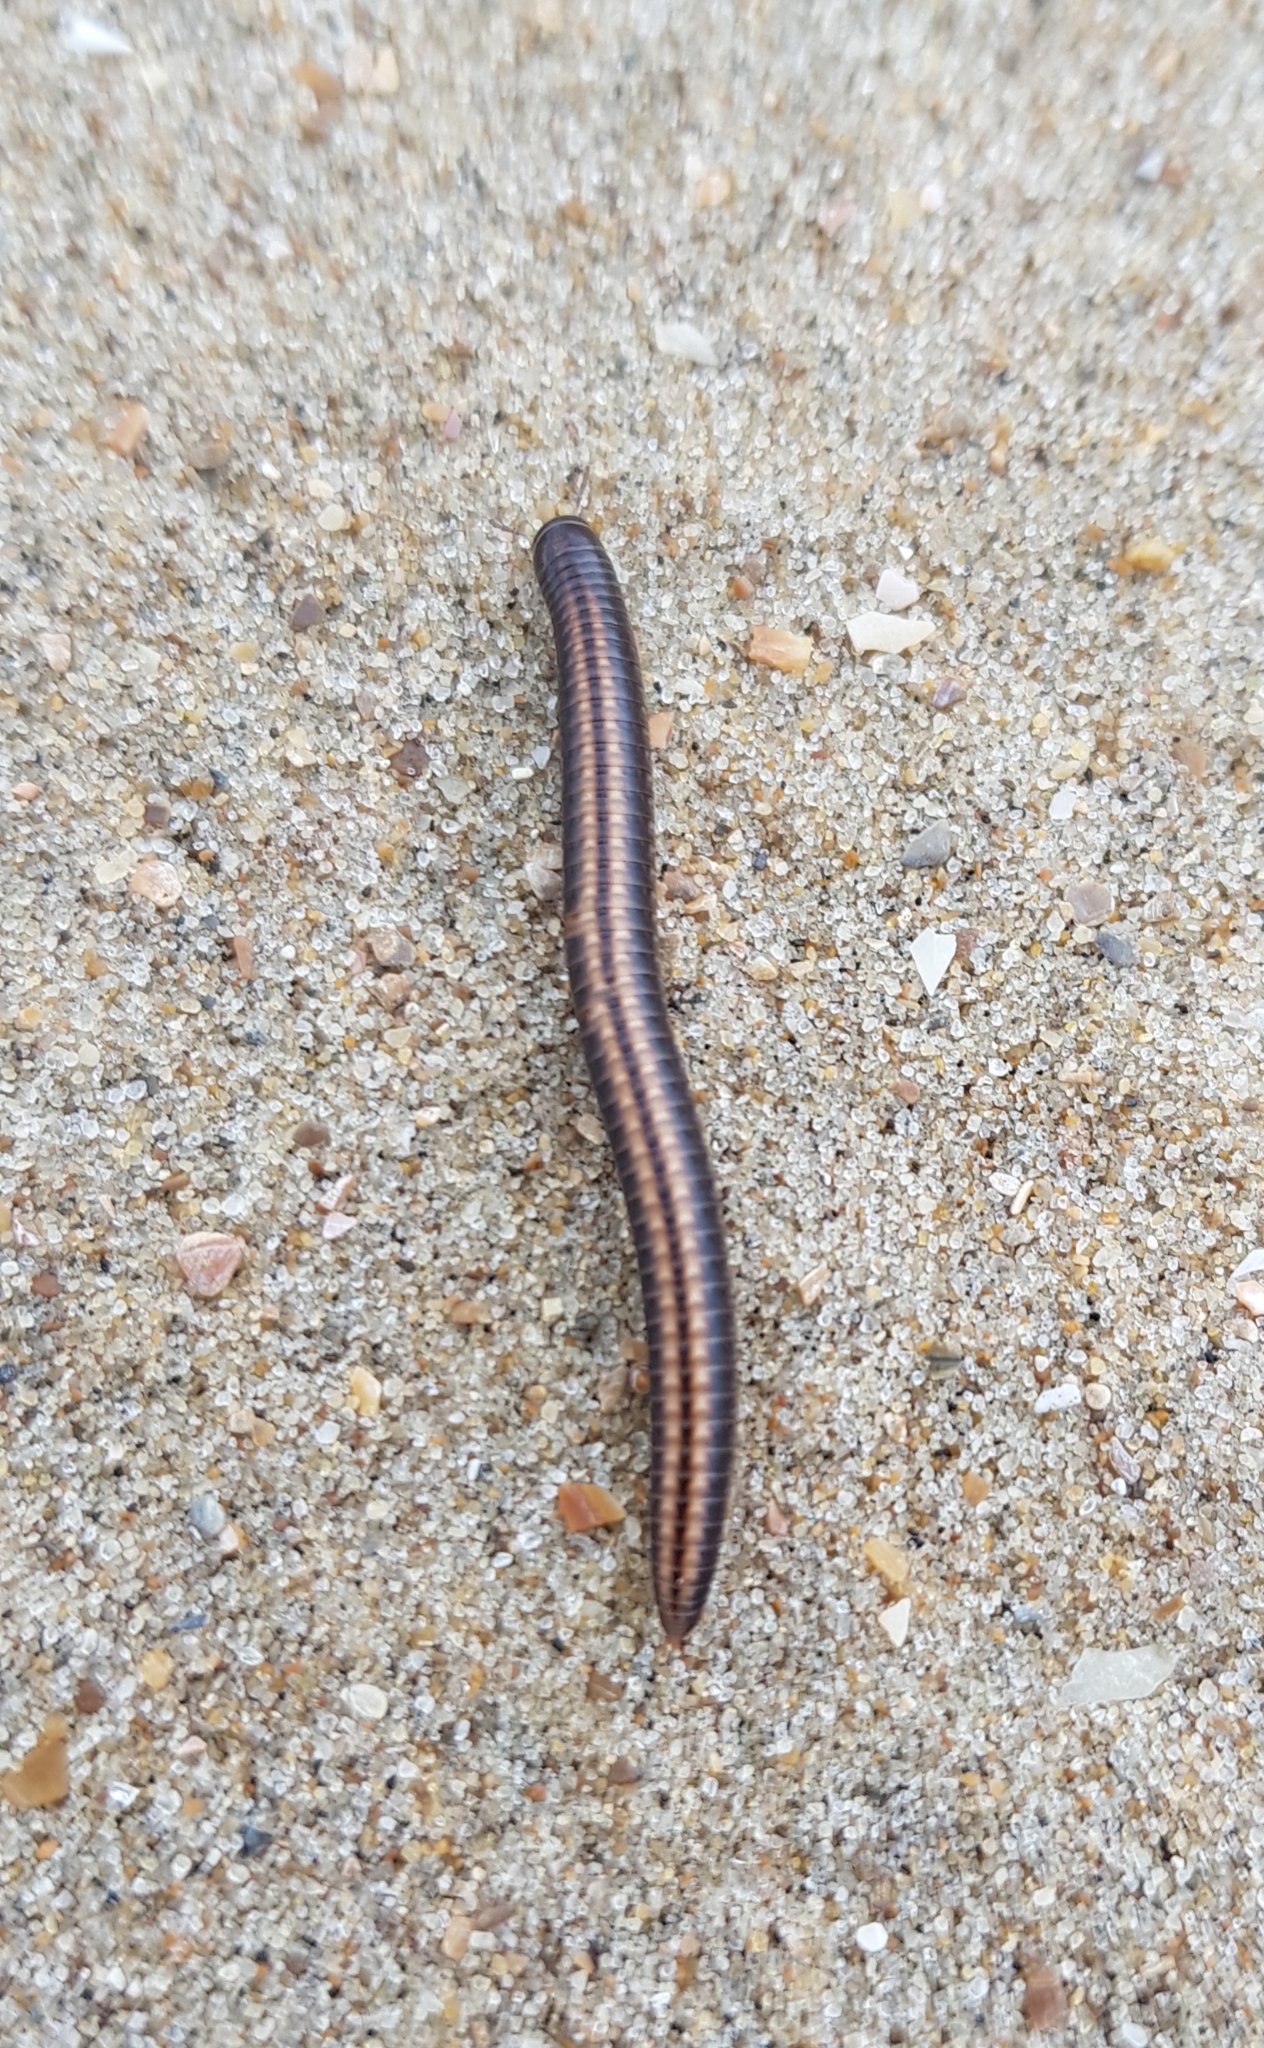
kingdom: Animalia
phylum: Arthropoda
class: Diplopoda
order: Julida
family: Julidae
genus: Ommatoiulus
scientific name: Ommatoiulus sabulosus
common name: Striped millipede
